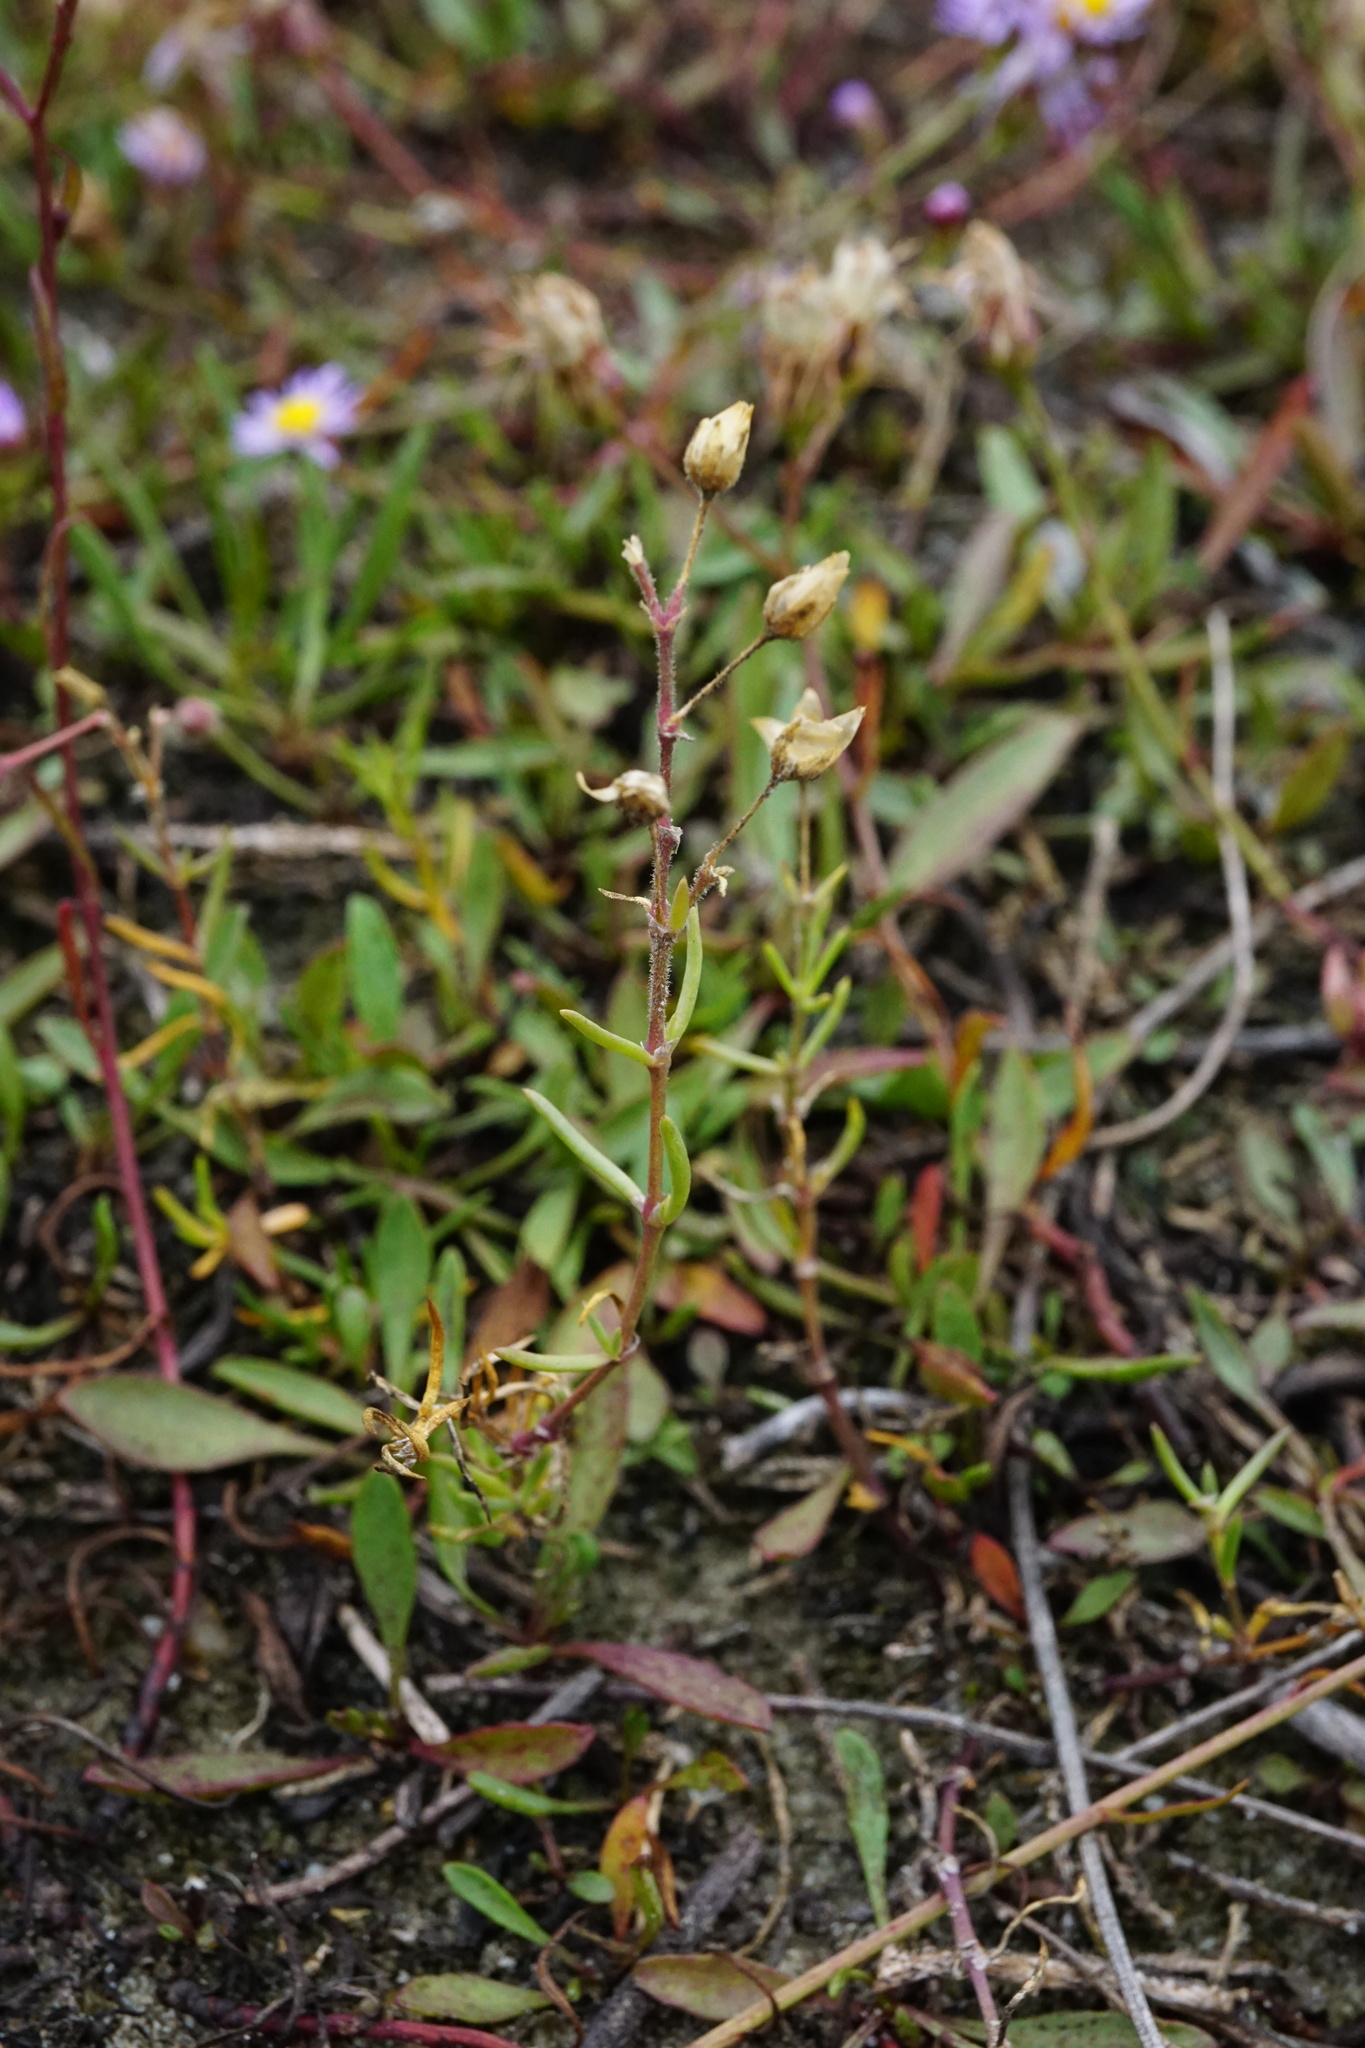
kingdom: Plantae
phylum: Tracheophyta
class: Magnoliopsida
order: Caryophyllales
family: Caryophyllaceae
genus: Spergularia
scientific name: Spergularia media
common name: Greater sea-spurrey
